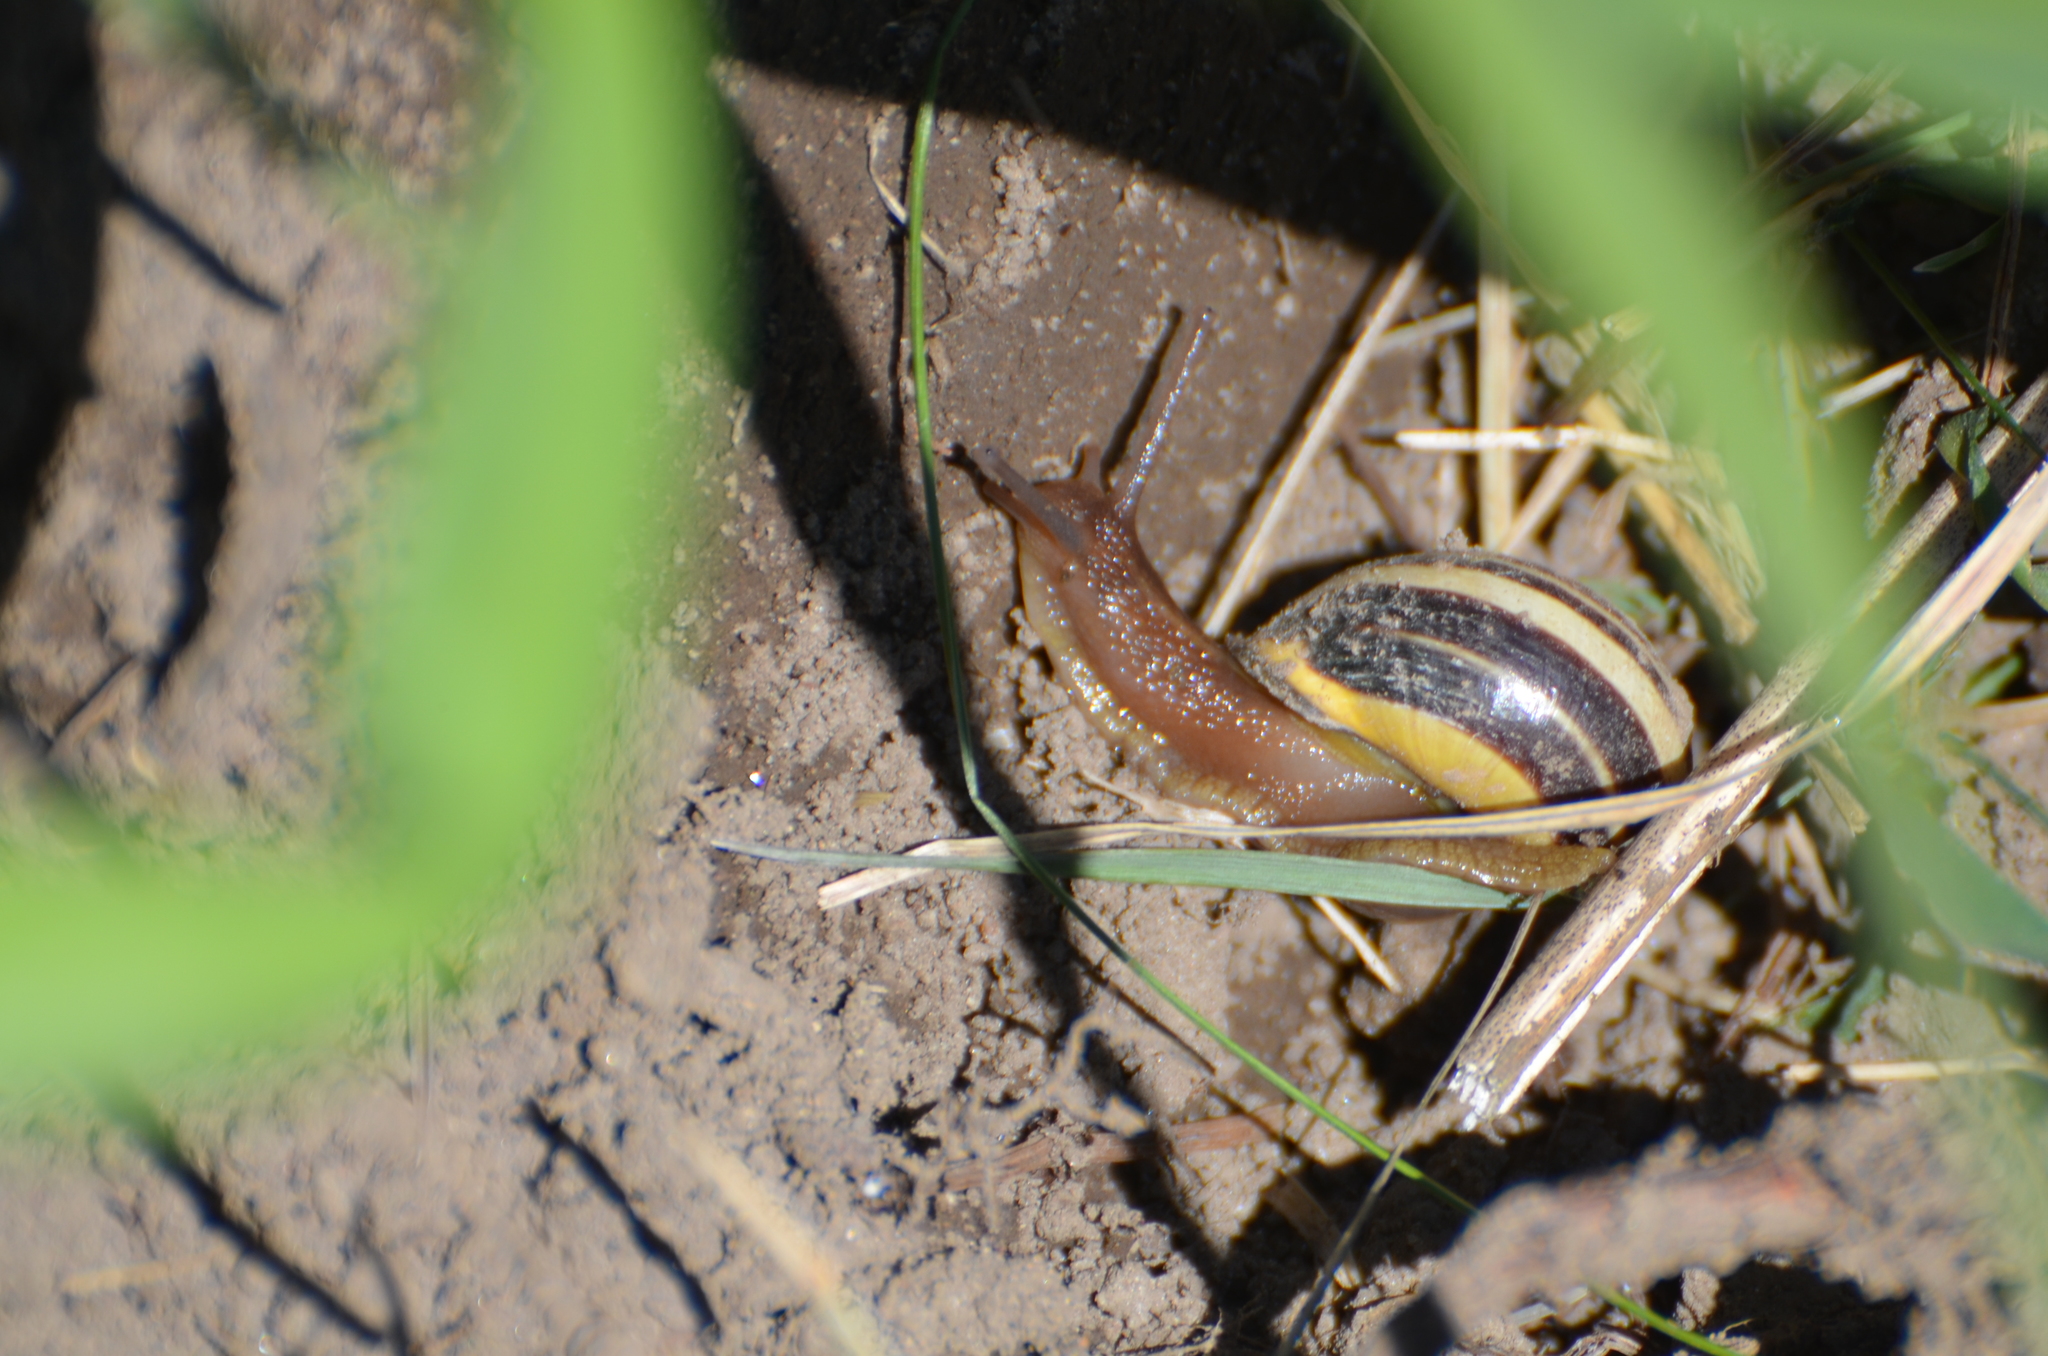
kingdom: Animalia
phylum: Mollusca
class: Gastropoda
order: Stylommatophora
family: Helicidae
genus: Cepaea
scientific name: Cepaea nemoralis
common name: Grovesnail
